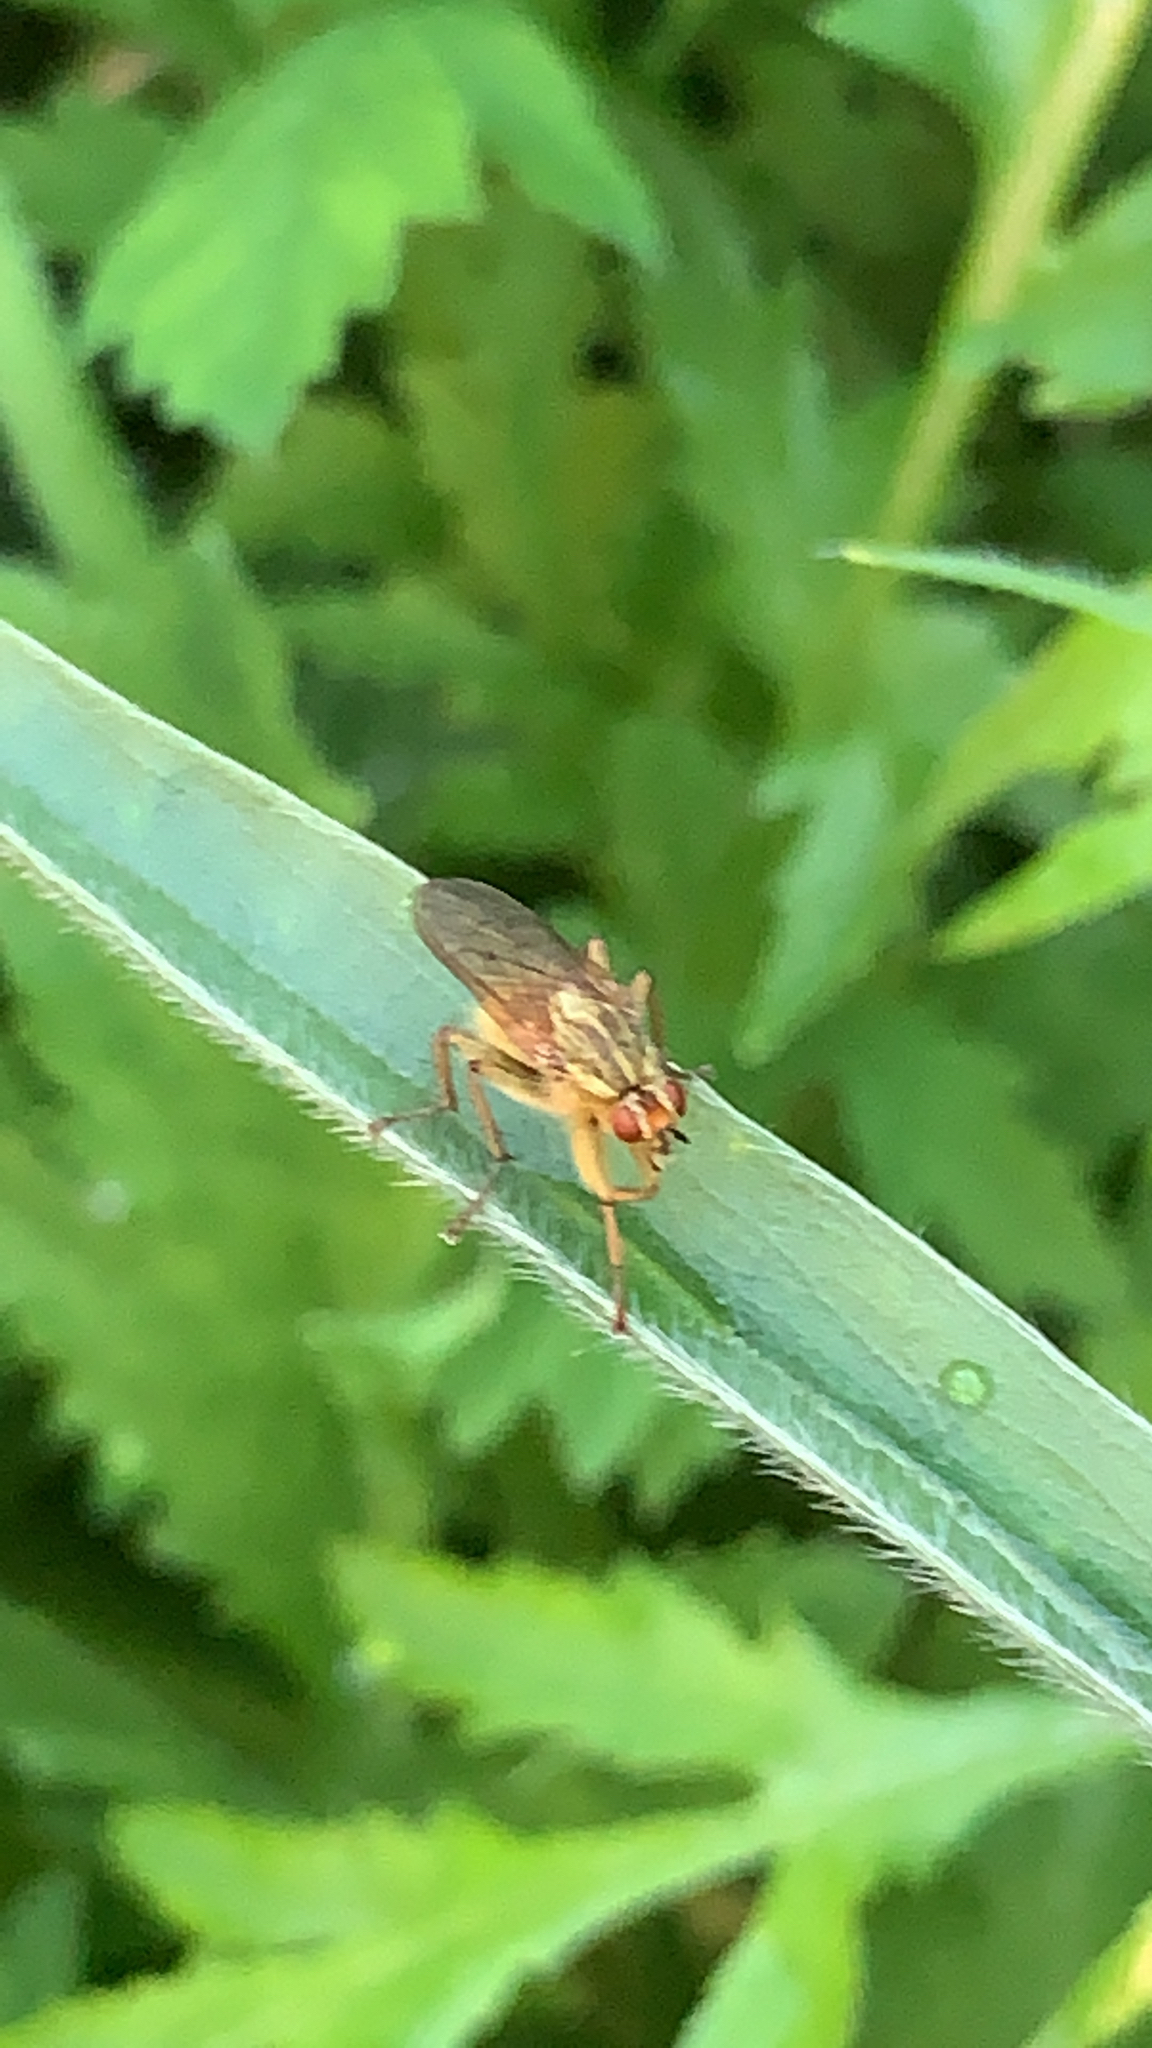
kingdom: Animalia
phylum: Arthropoda
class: Insecta
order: Diptera
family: Scathophagidae
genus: Scathophaga
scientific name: Scathophaga stercoraria
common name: Yellow dung fly
